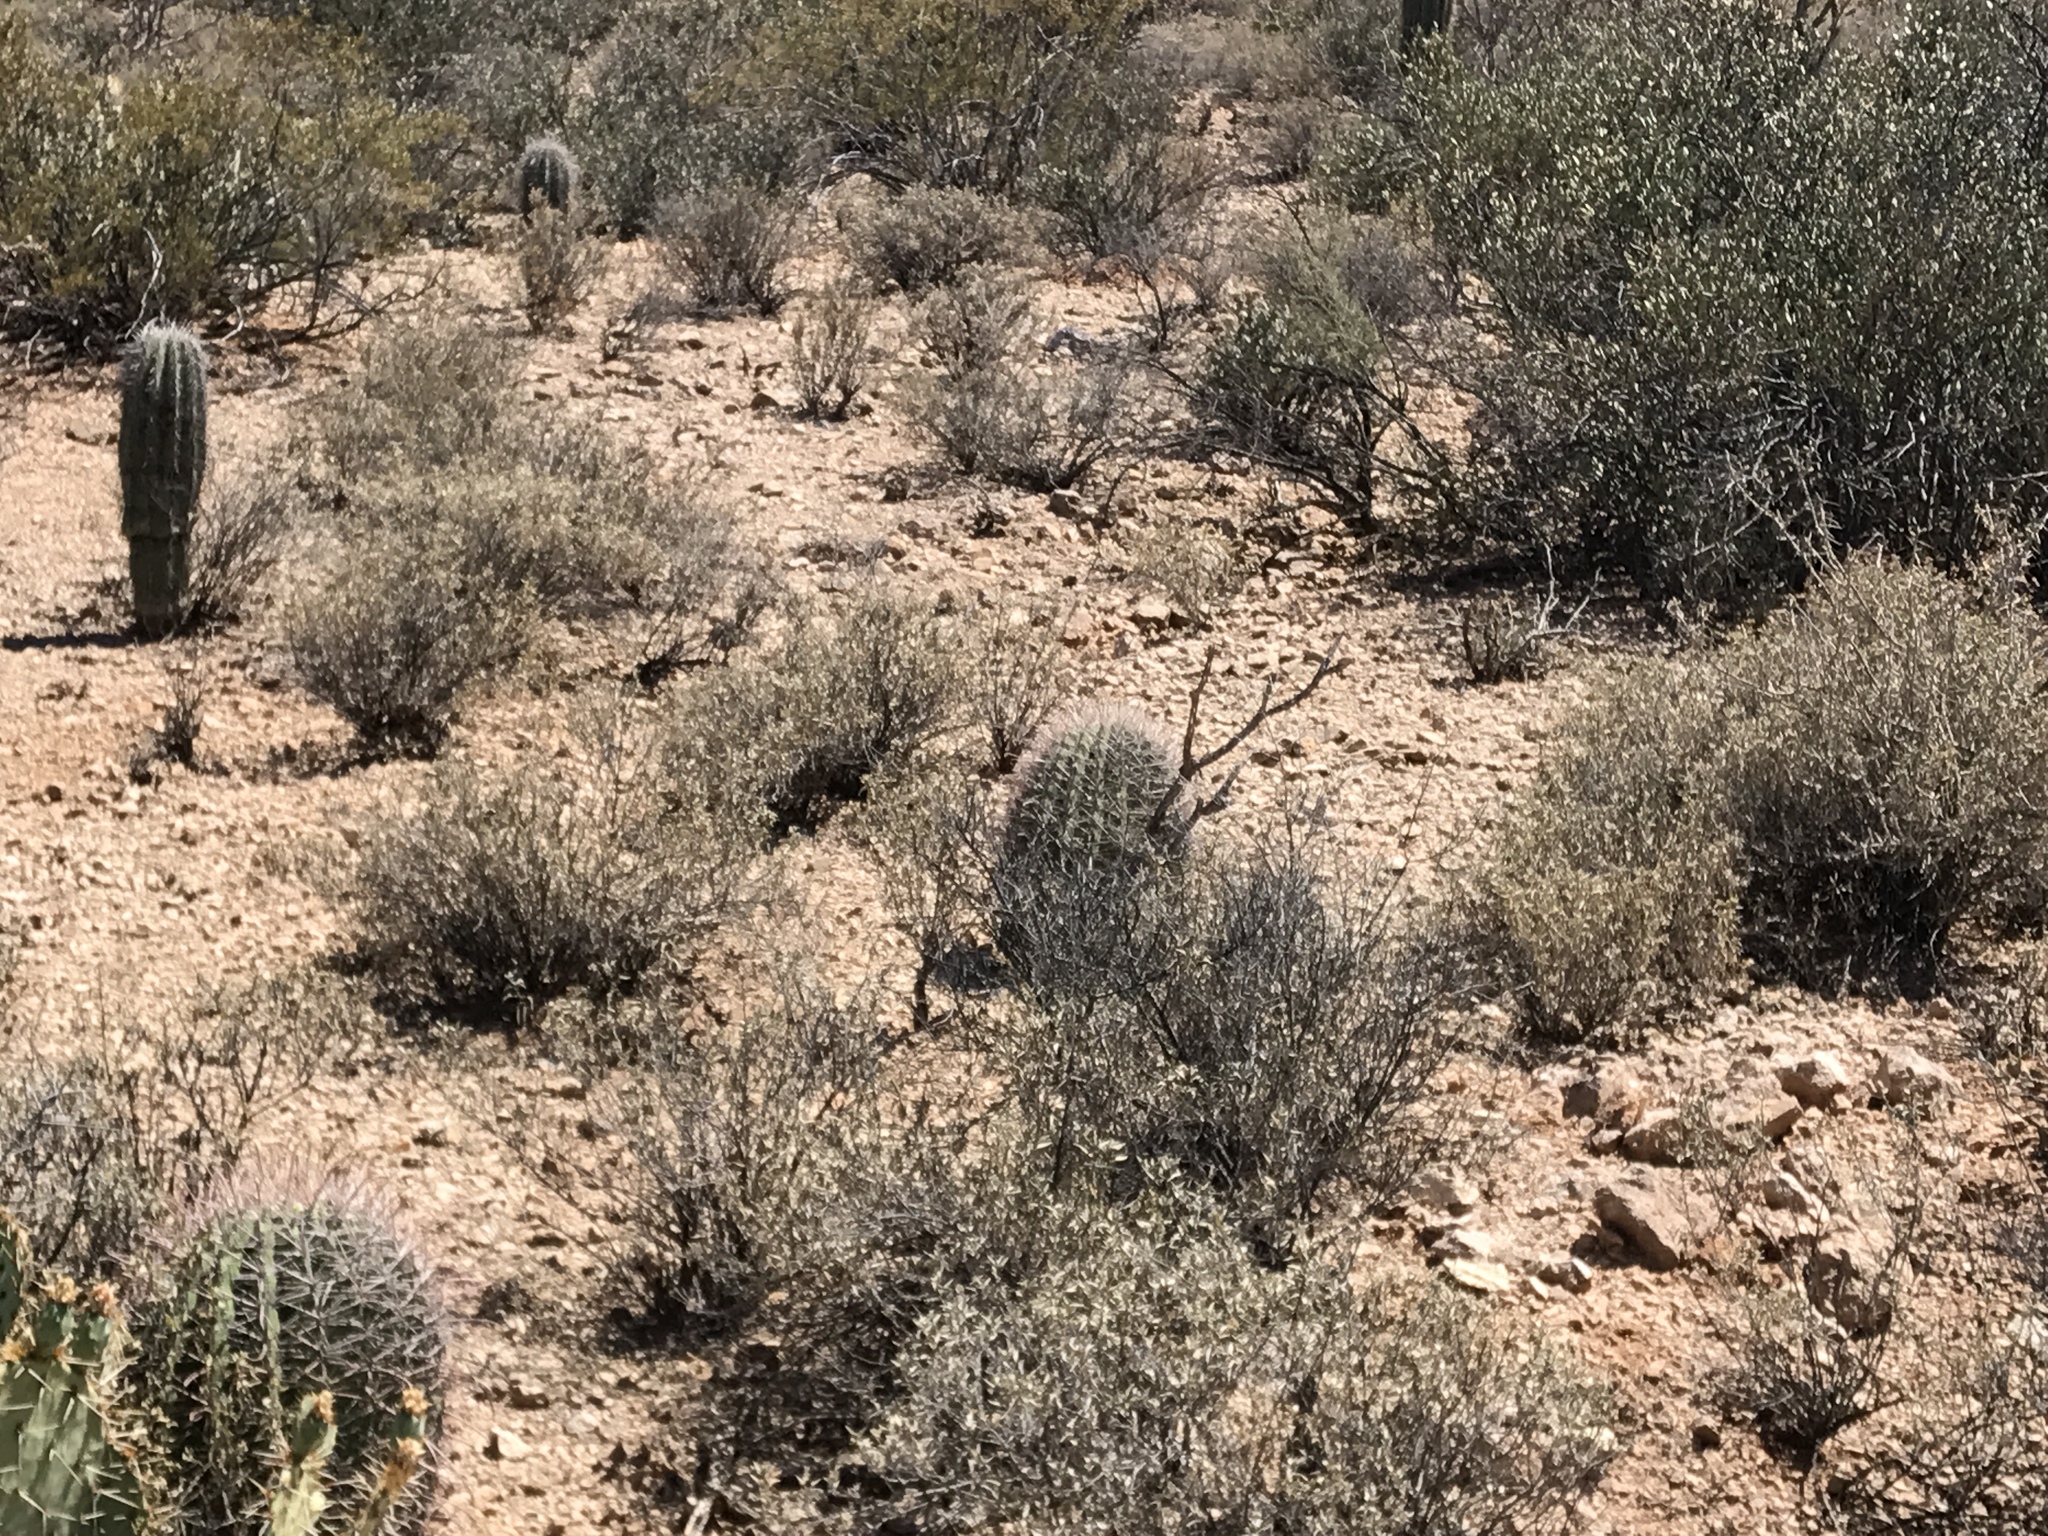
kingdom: Plantae
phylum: Tracheophyta
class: Magnoliopsida
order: Caryophyllales
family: Cactaceae
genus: Ferocactus
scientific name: Ferocactus wislizeni
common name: Candy barrel cactus
